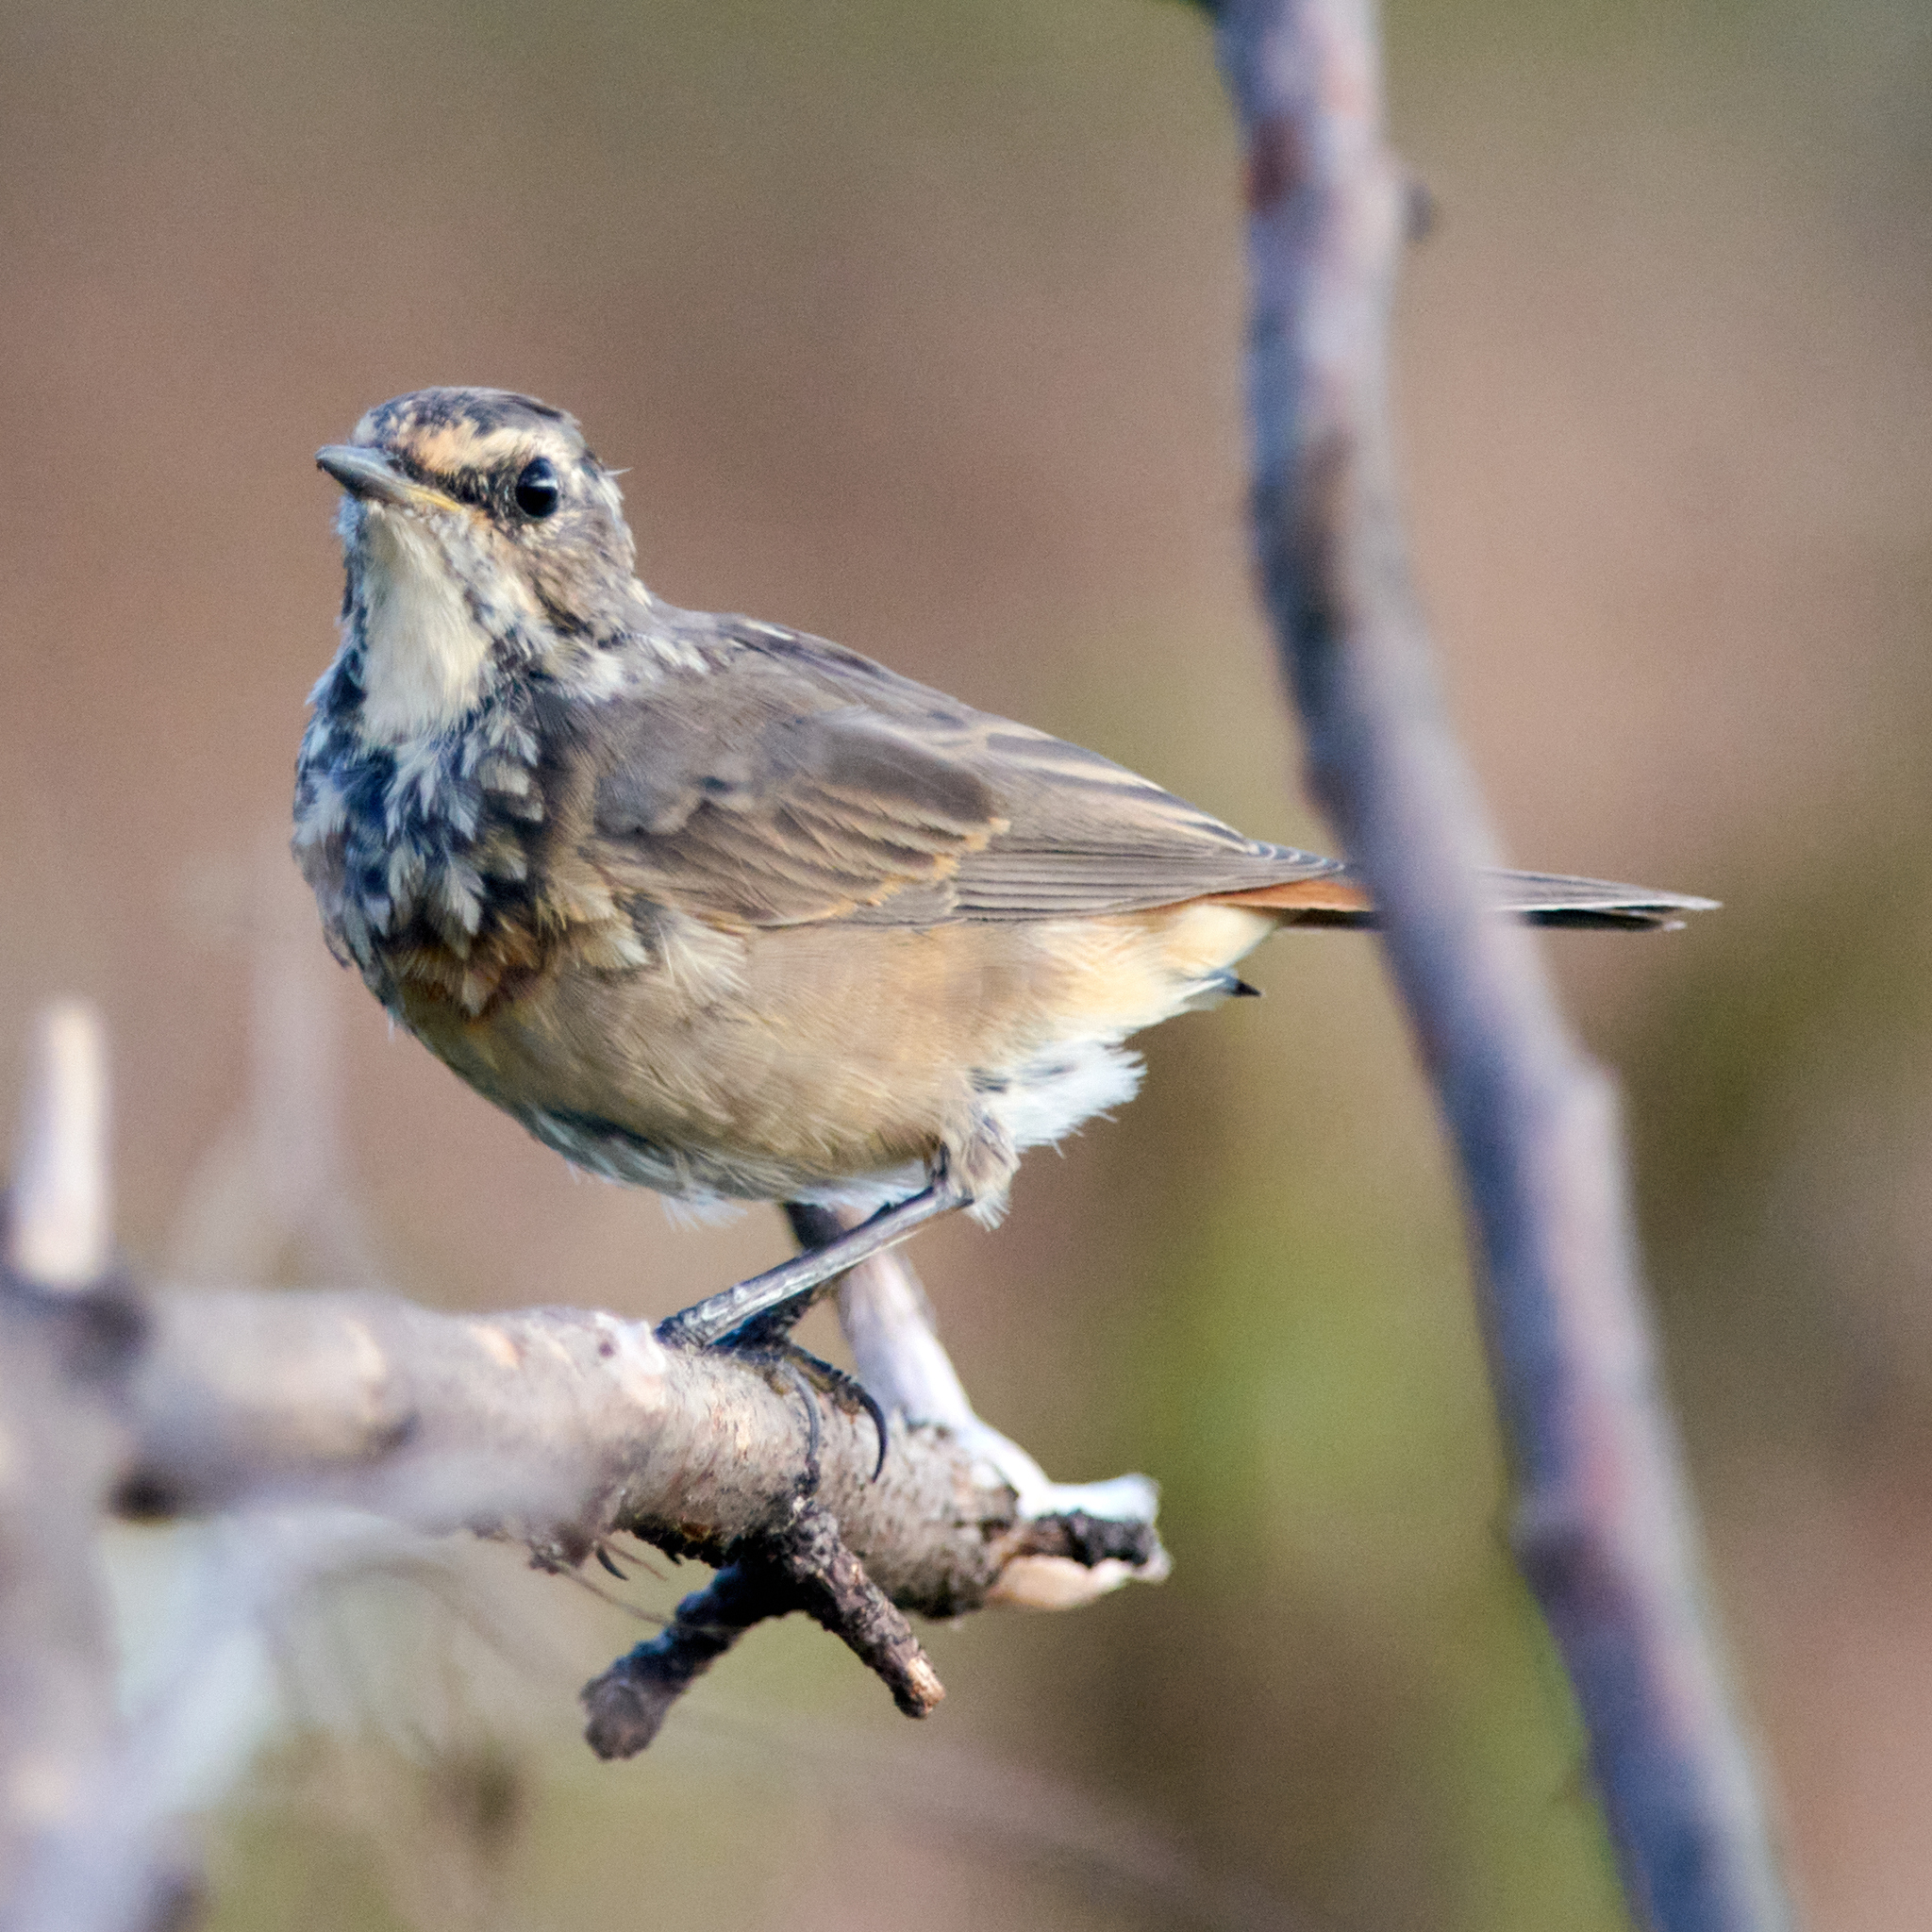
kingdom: Animalia
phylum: Chordata
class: Aves
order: Passeriformes
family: Muscicapidae
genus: Luscinia
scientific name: Luscinia svecica
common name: Bluethroat
